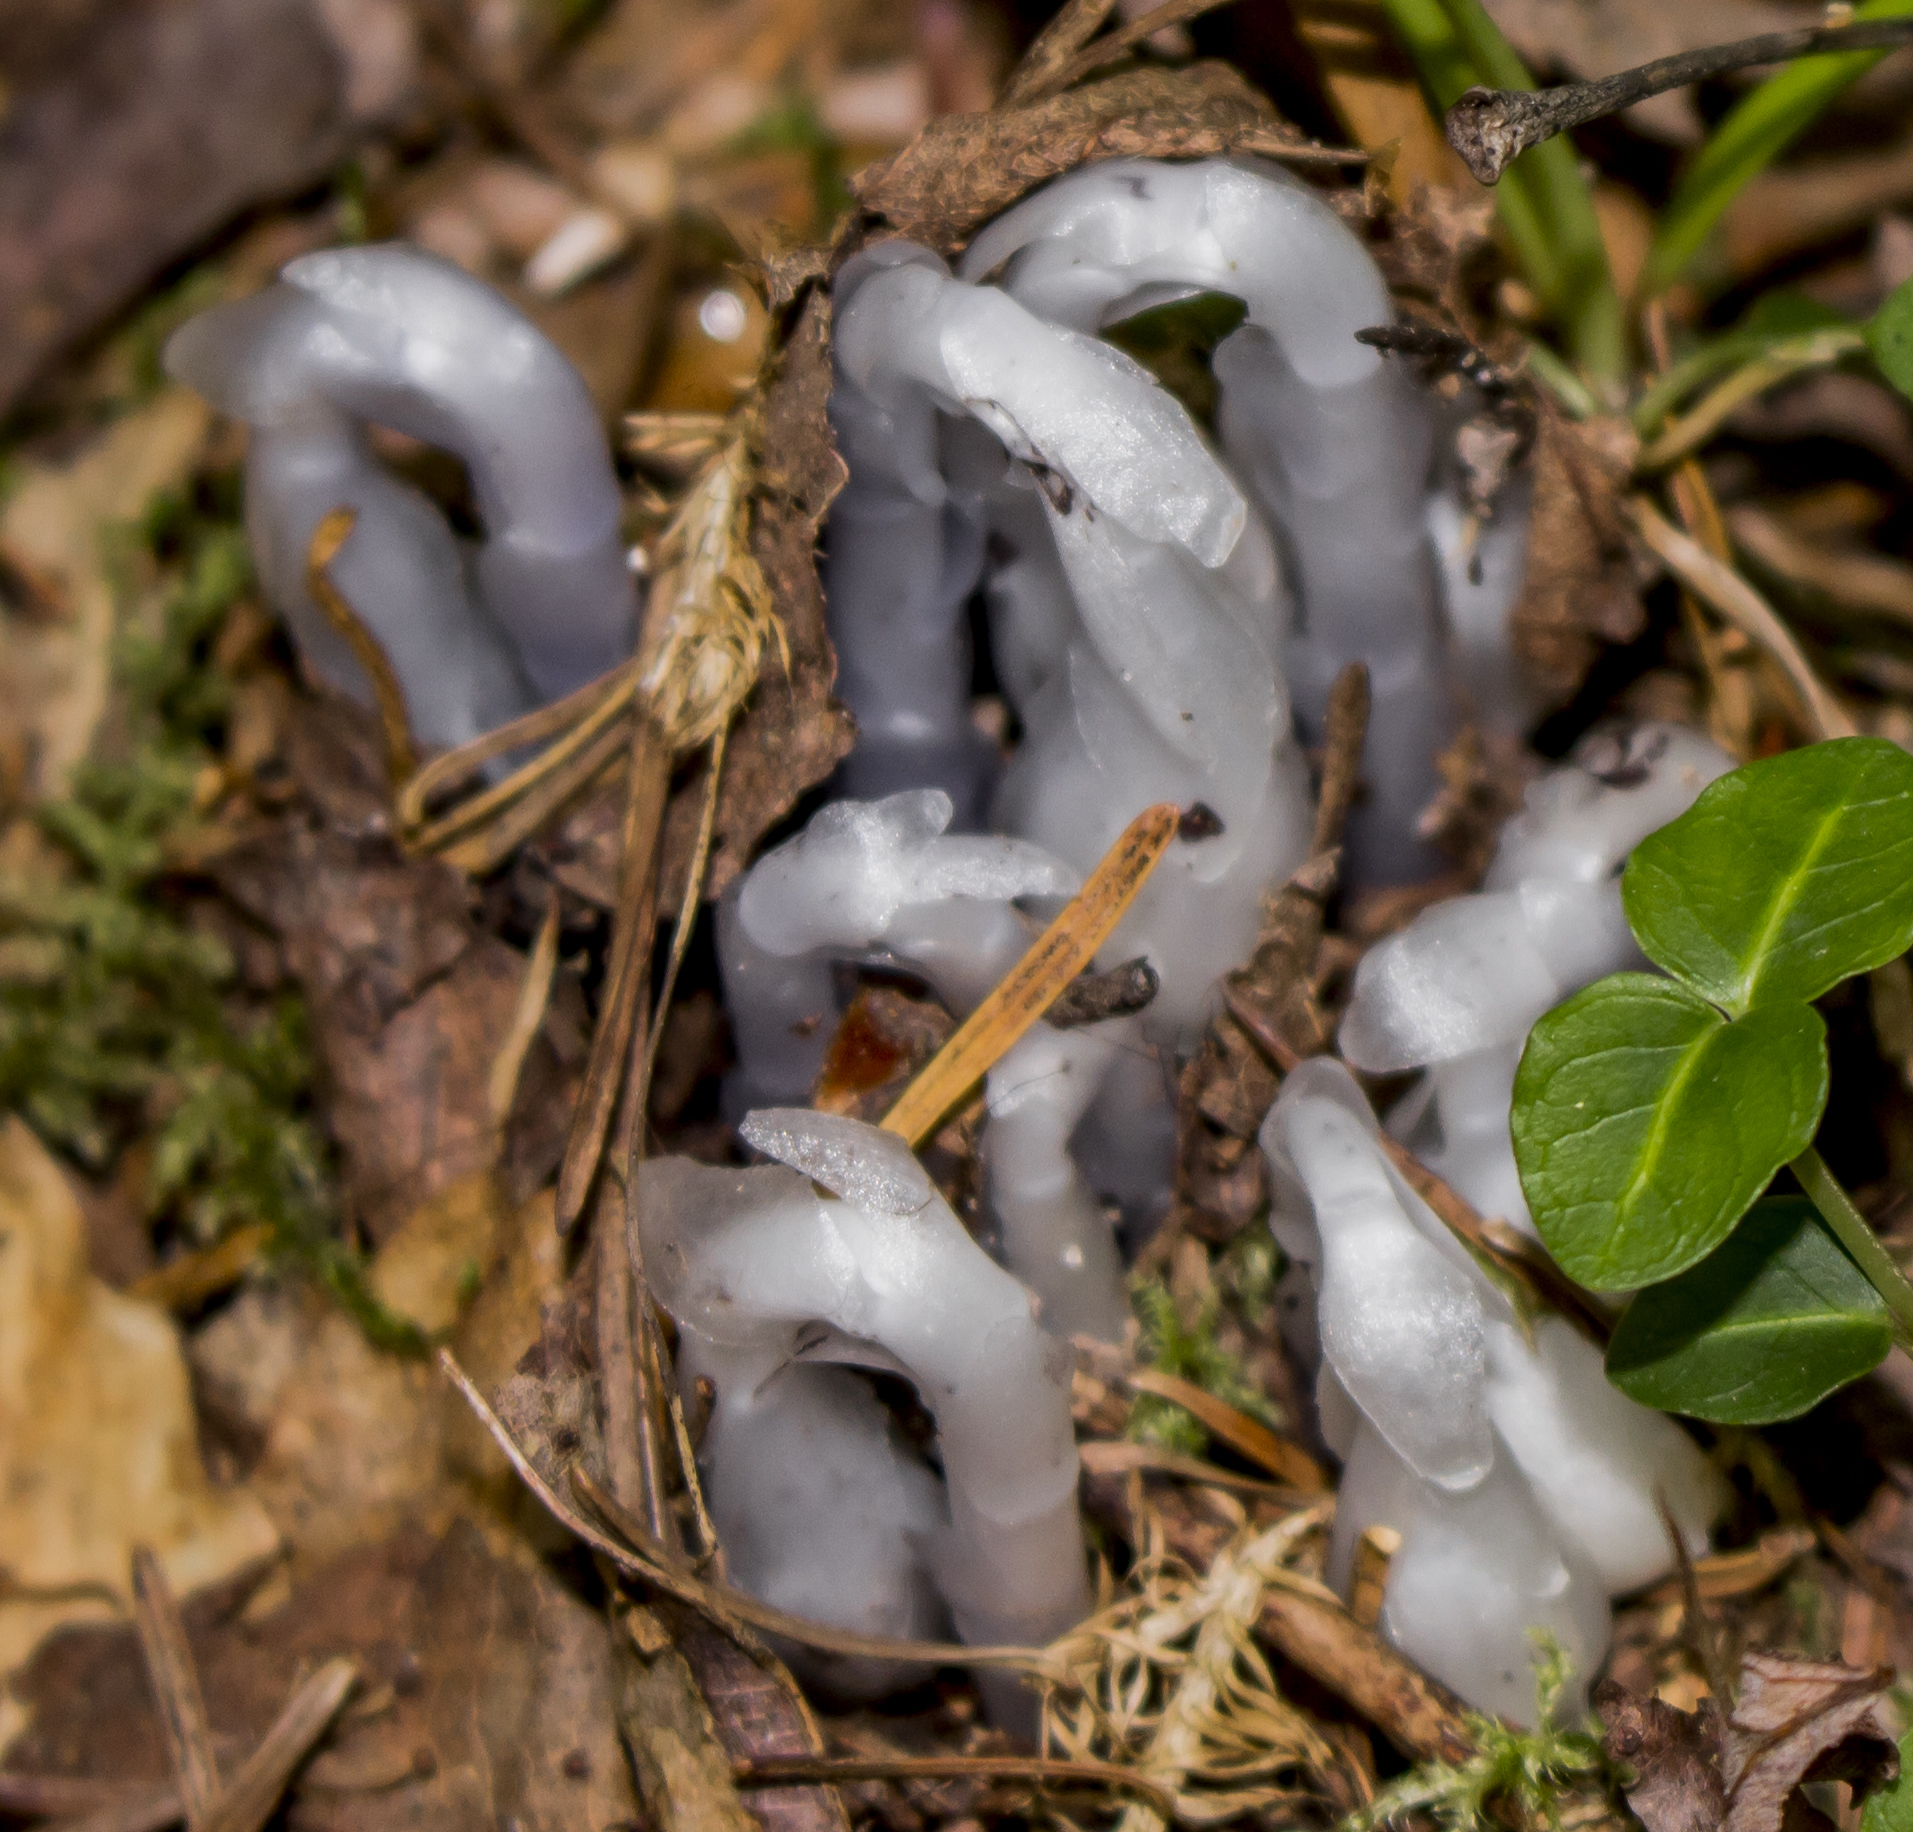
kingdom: Plantae
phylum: Tracheophyta
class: Magnoliopsida
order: Ericales
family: Ericaceae
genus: Monotropa
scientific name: Monotropa uniflora
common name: Convulsion root
